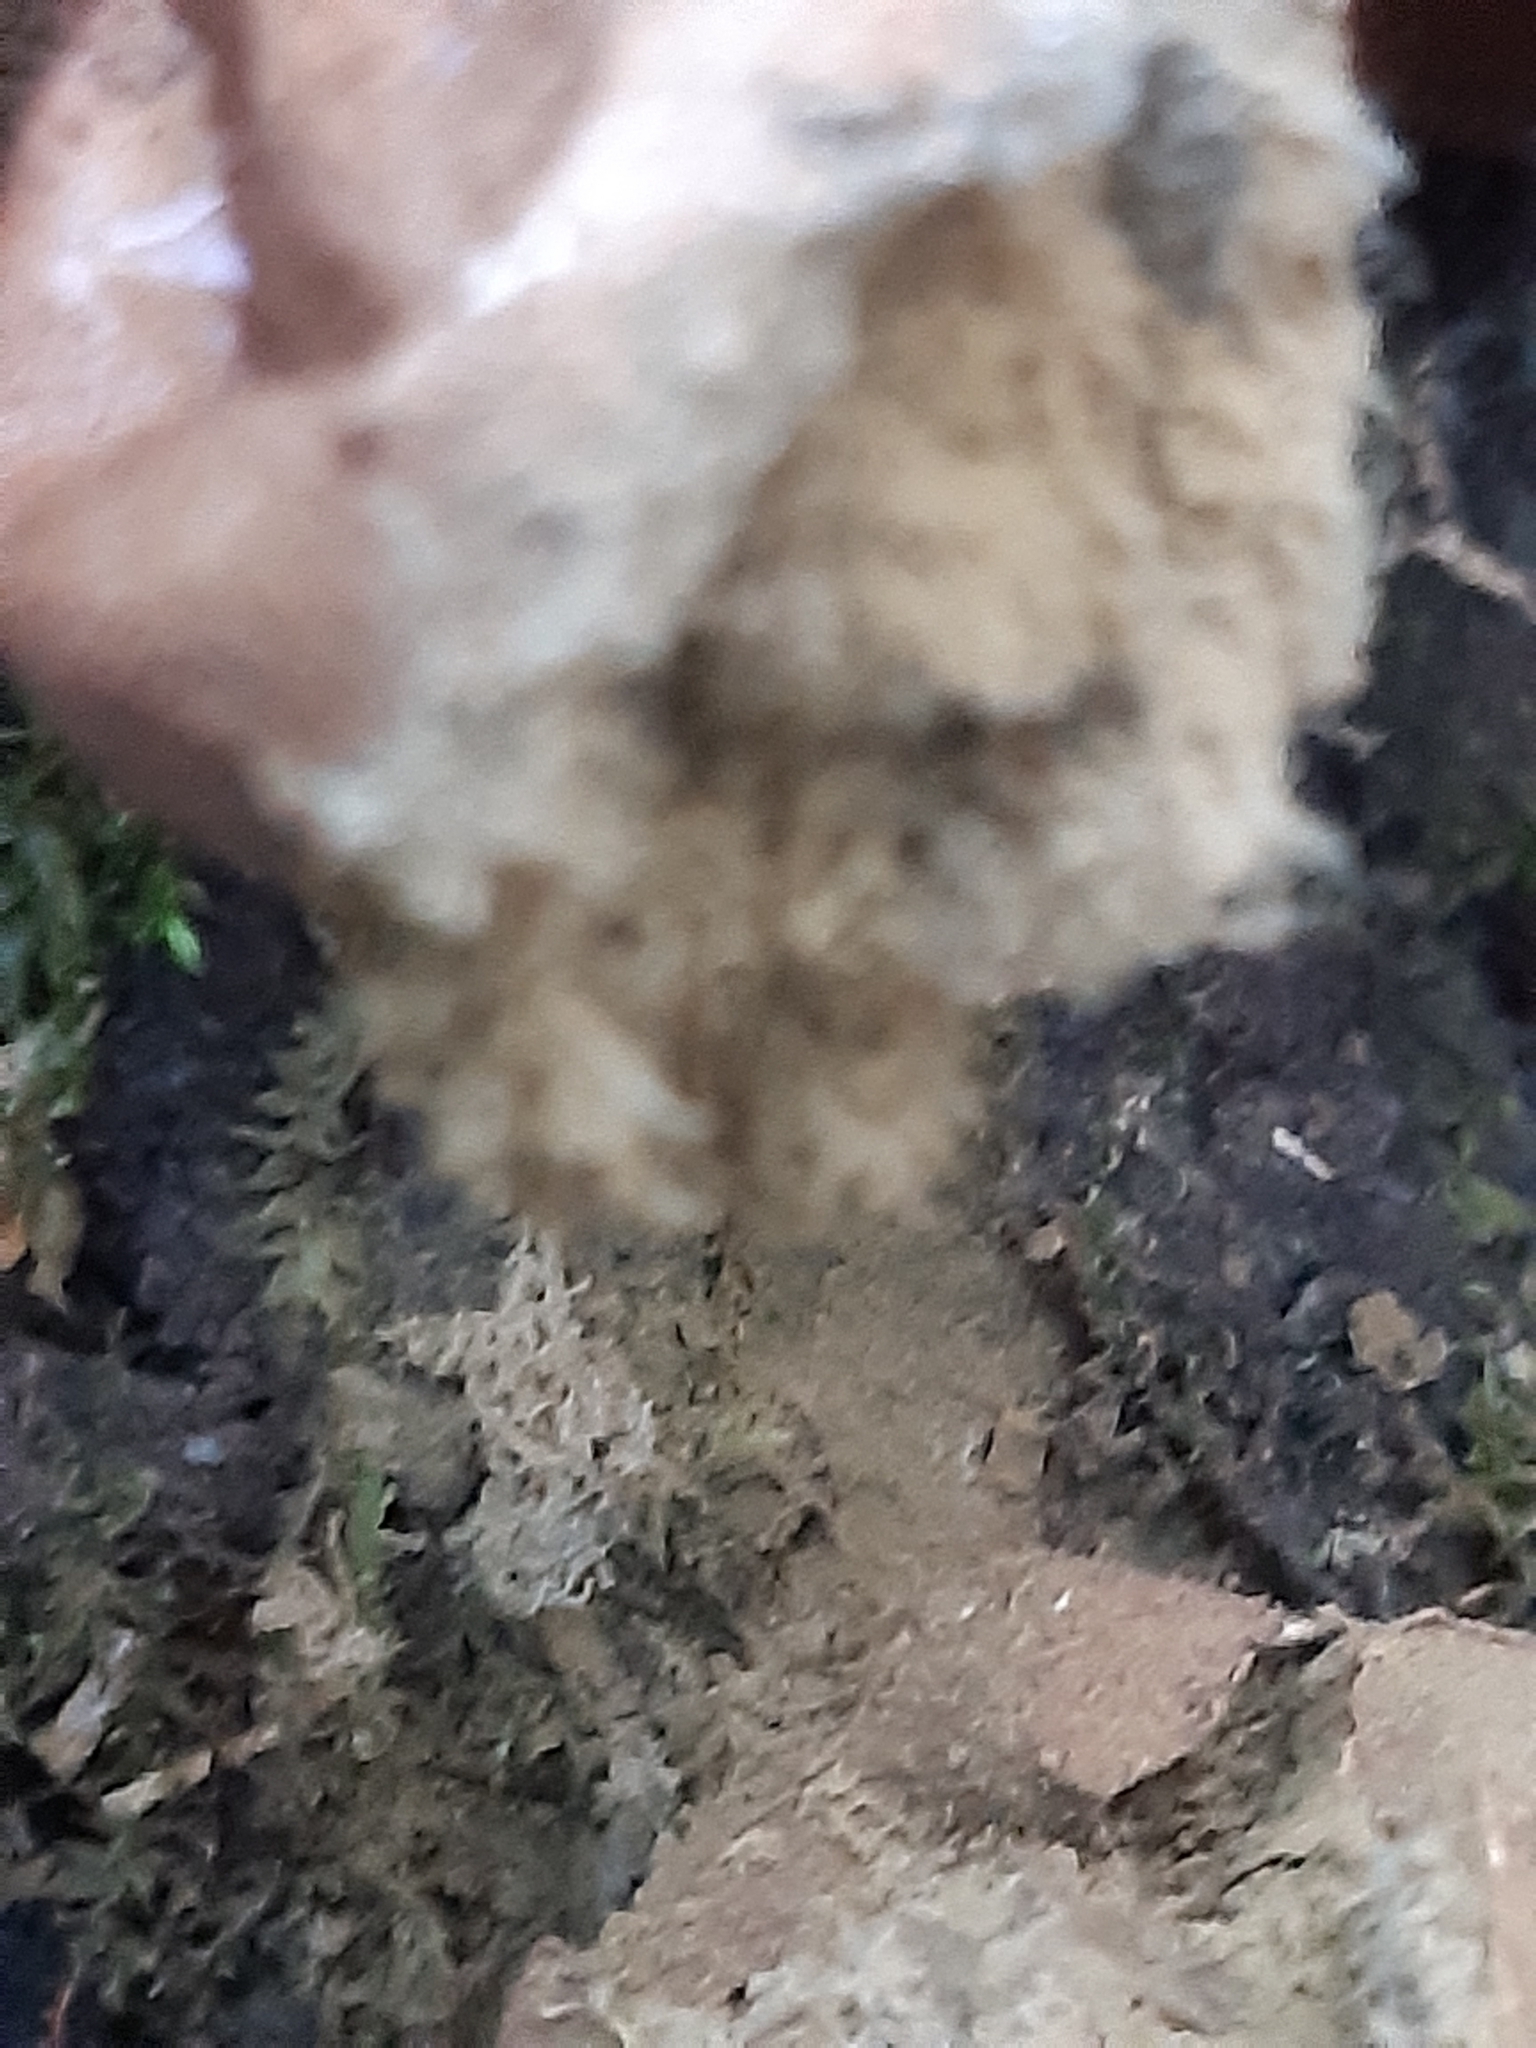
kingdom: Fungi
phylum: Basidiomycota
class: Agaricomycetes
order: Agaricales
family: Lycoperdaceae
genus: Apioperdon
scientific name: Apioperdon pyriforme
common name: Pear-shaped puffball
